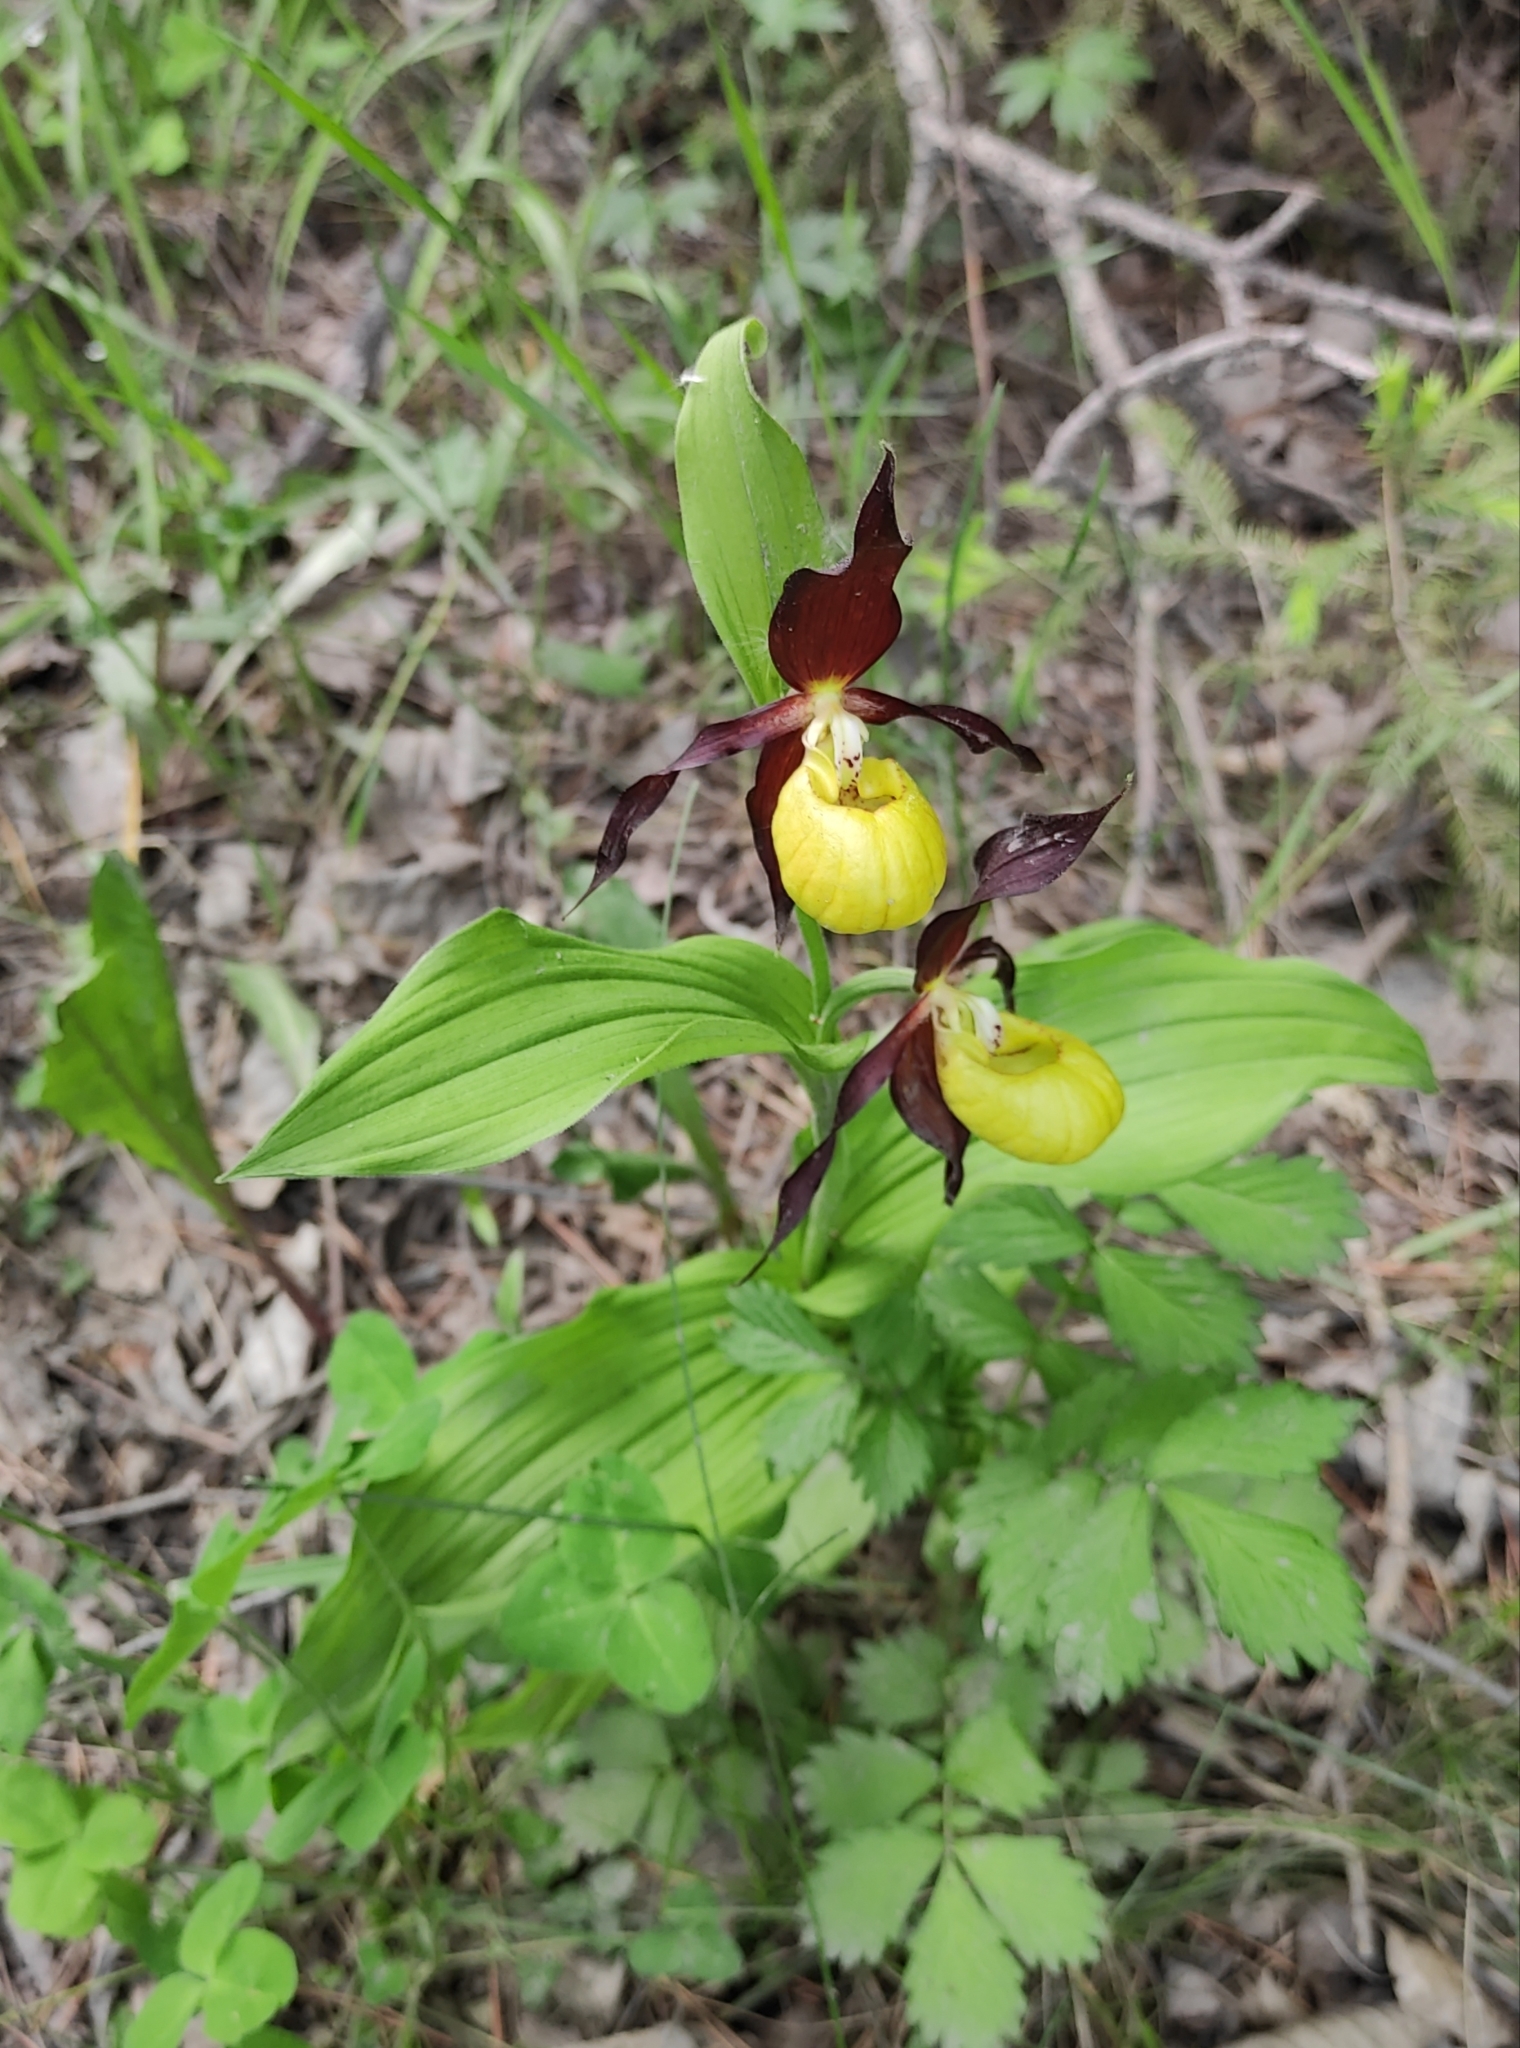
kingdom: Plantae
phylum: Tracheophyta
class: Liliopsida
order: Asparagales
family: Orchidaceae
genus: Cypripedium
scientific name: Cypripedium calceolus
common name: Lady's-slipper
